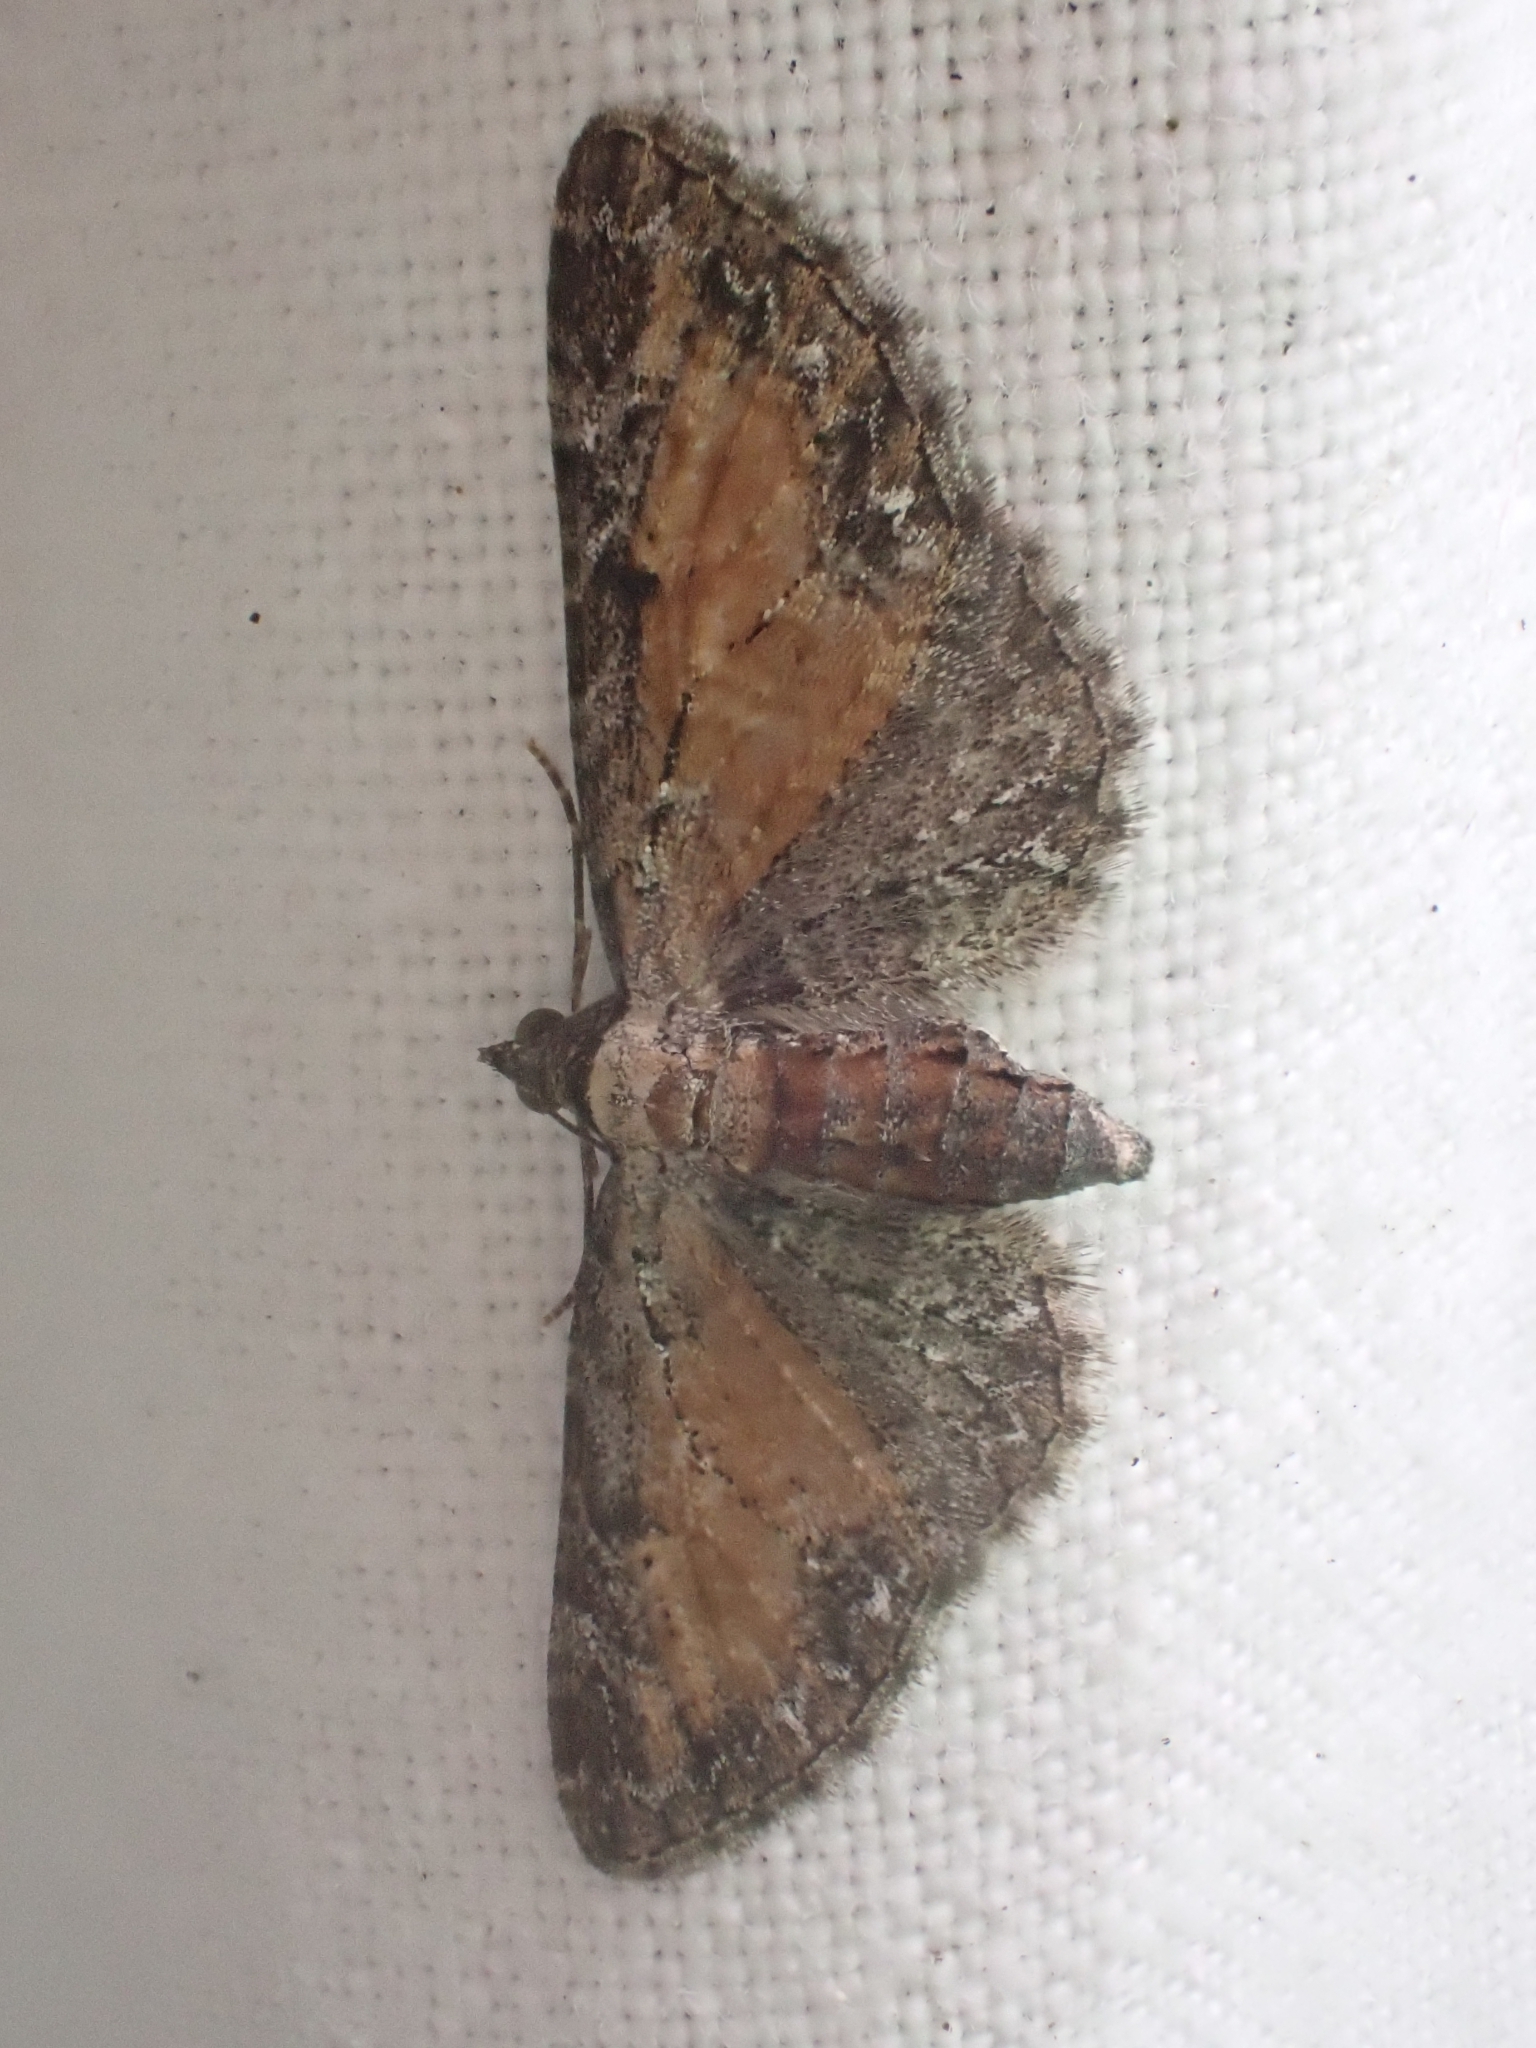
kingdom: Animalia
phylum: Arthropoda
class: Insecta
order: Lepidoptera
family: Geometridae
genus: Eupithecia
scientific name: Eupithecia icterata
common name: Tawny speckled pug
